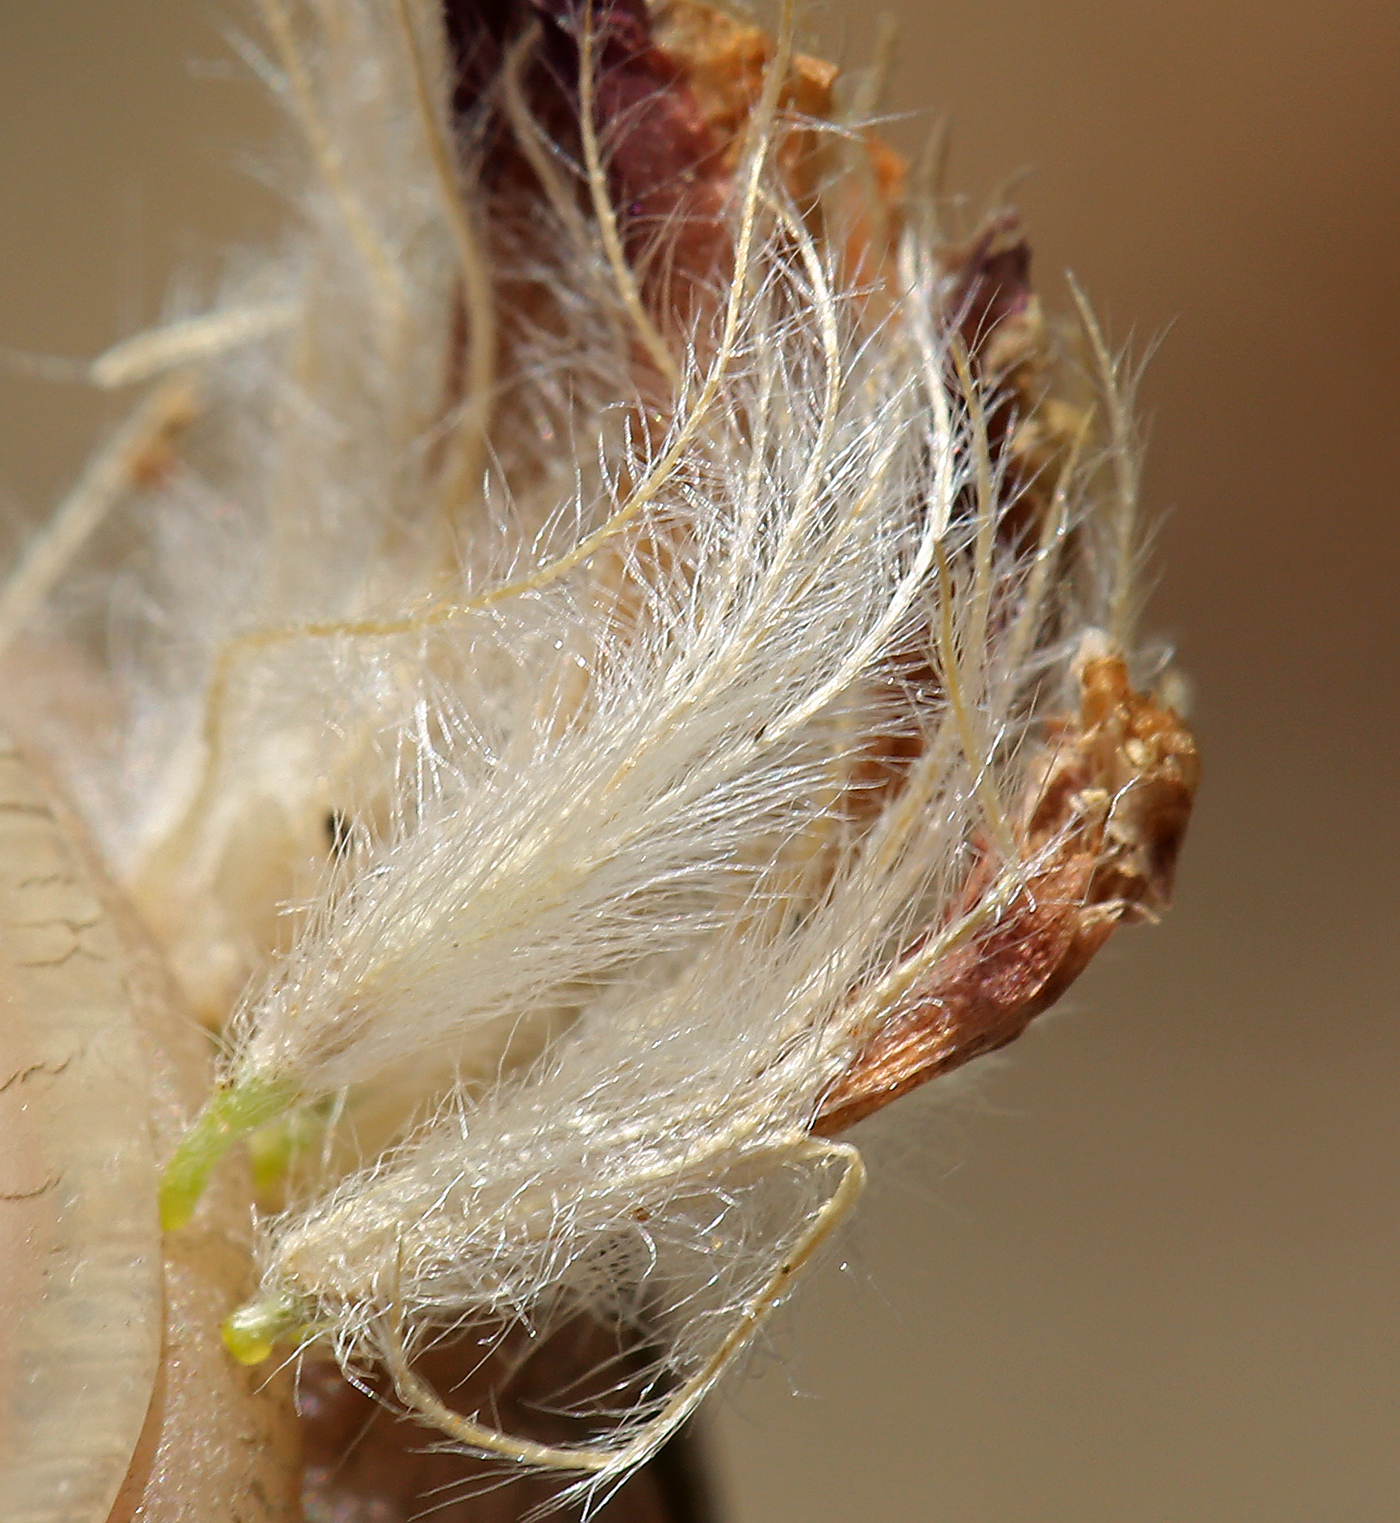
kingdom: Plantae
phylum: Tracheophyta
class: Magnoliopsida
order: Fabales
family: Fabaceae
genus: Trifolium
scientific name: Trifolium andersonii
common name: Anderson's clover
